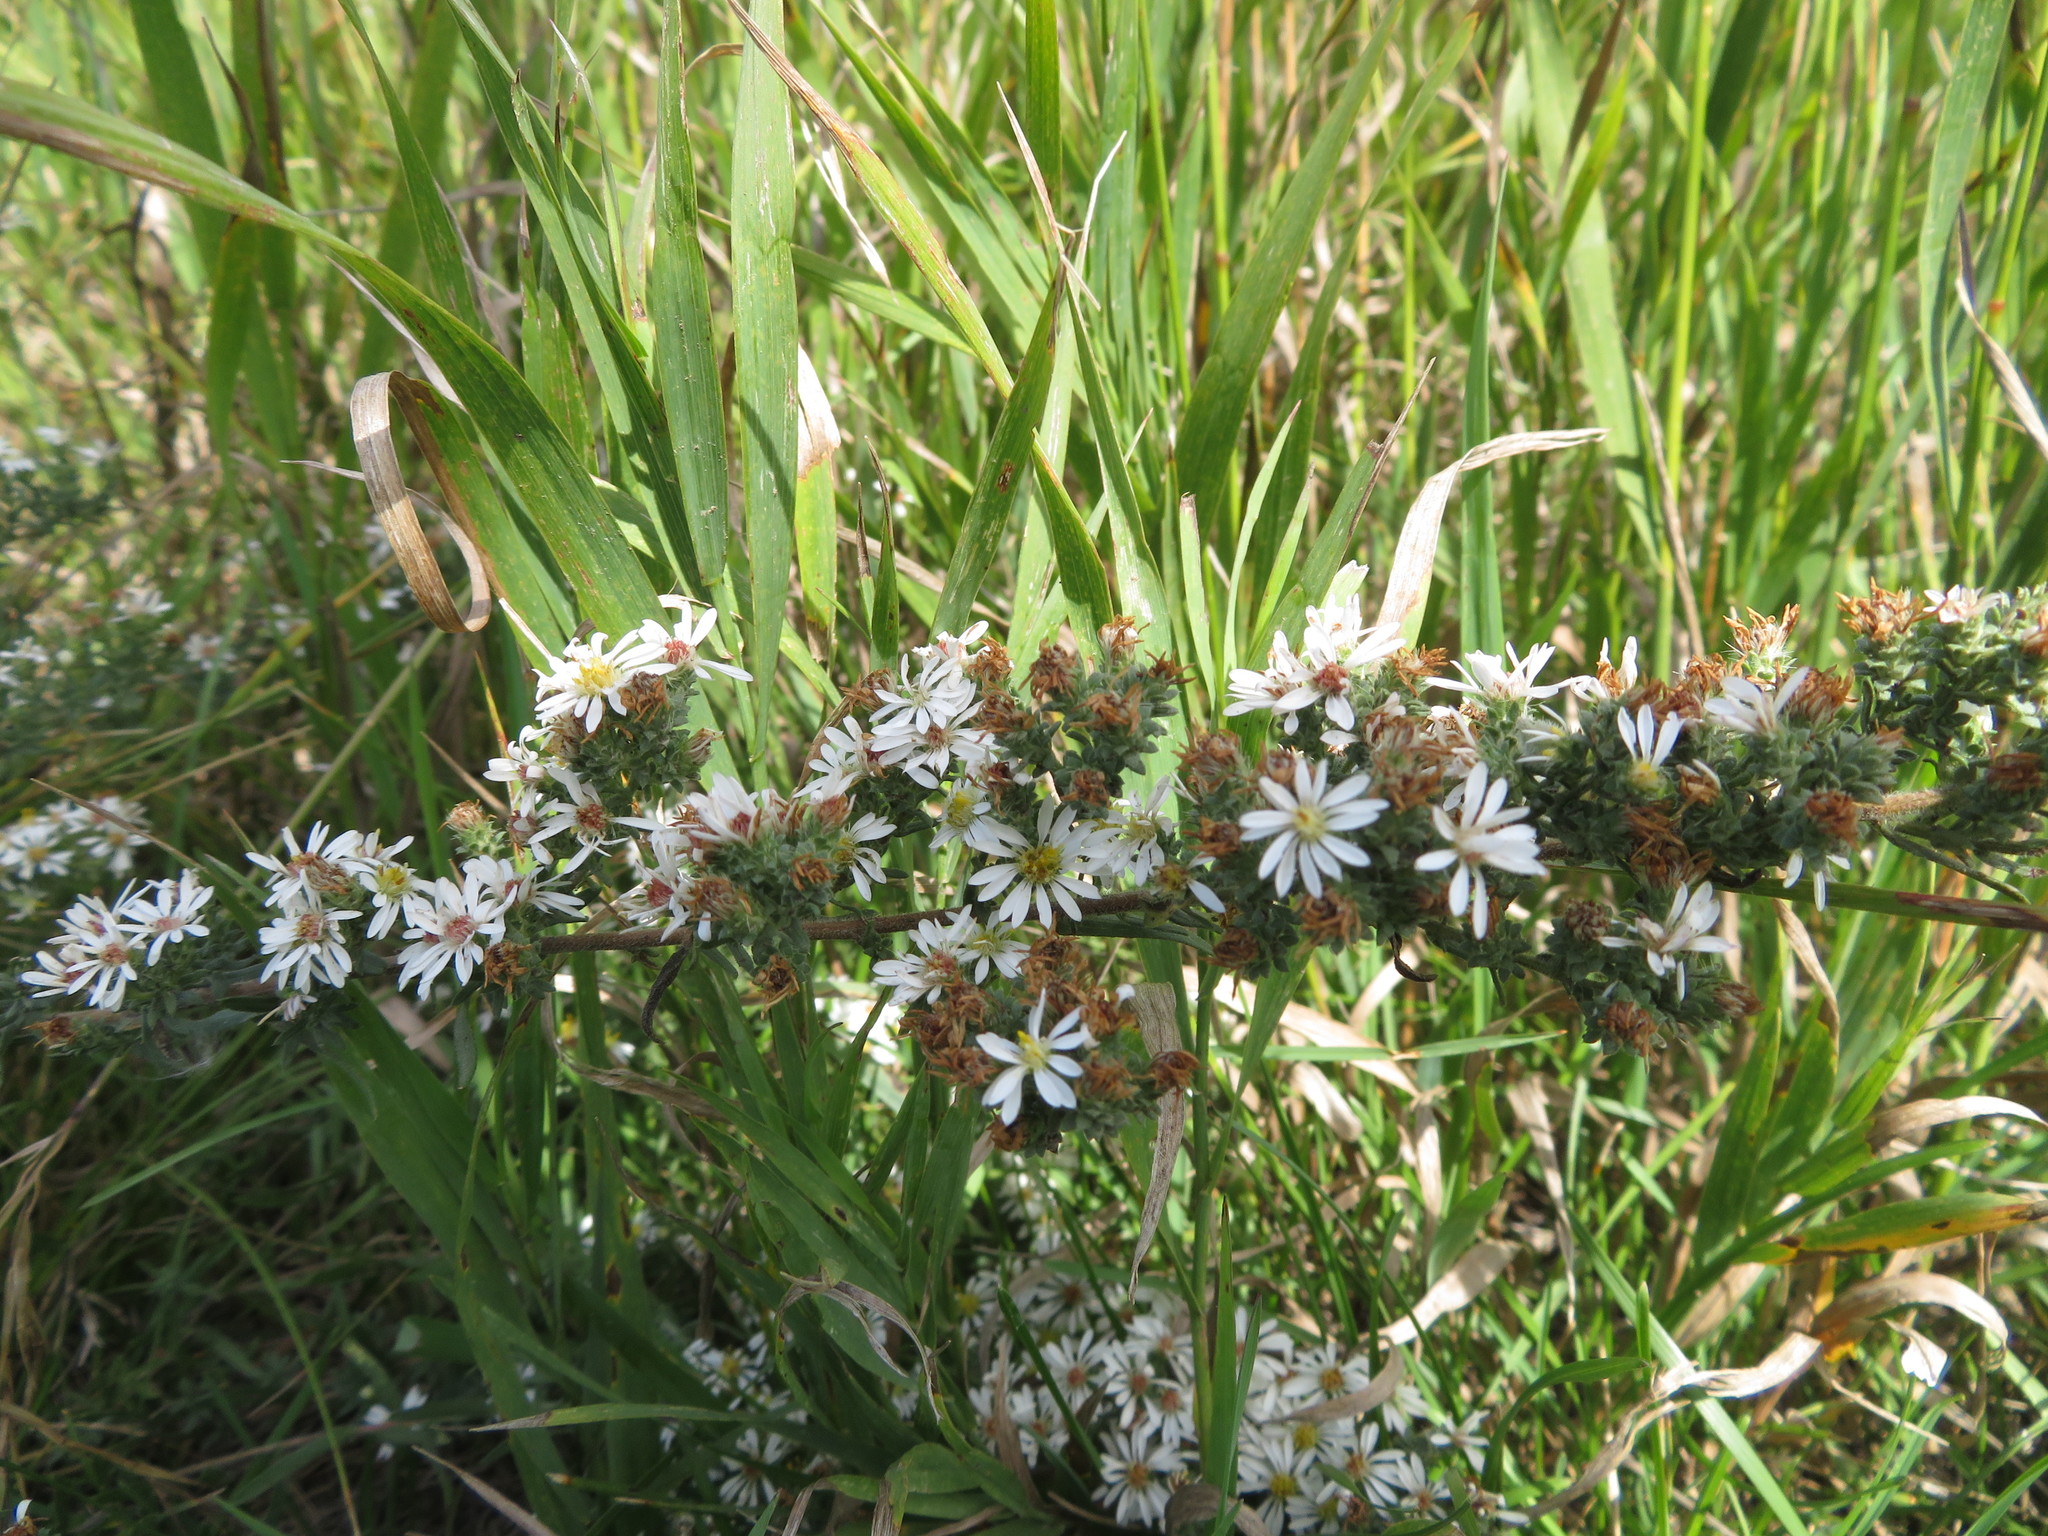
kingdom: Plantae
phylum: Tracheophyta
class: Magnoliopsida
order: Asterales
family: Asteraceae
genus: Symphyotrichum
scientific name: Symphyotrichum ericoides
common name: Heath aster
